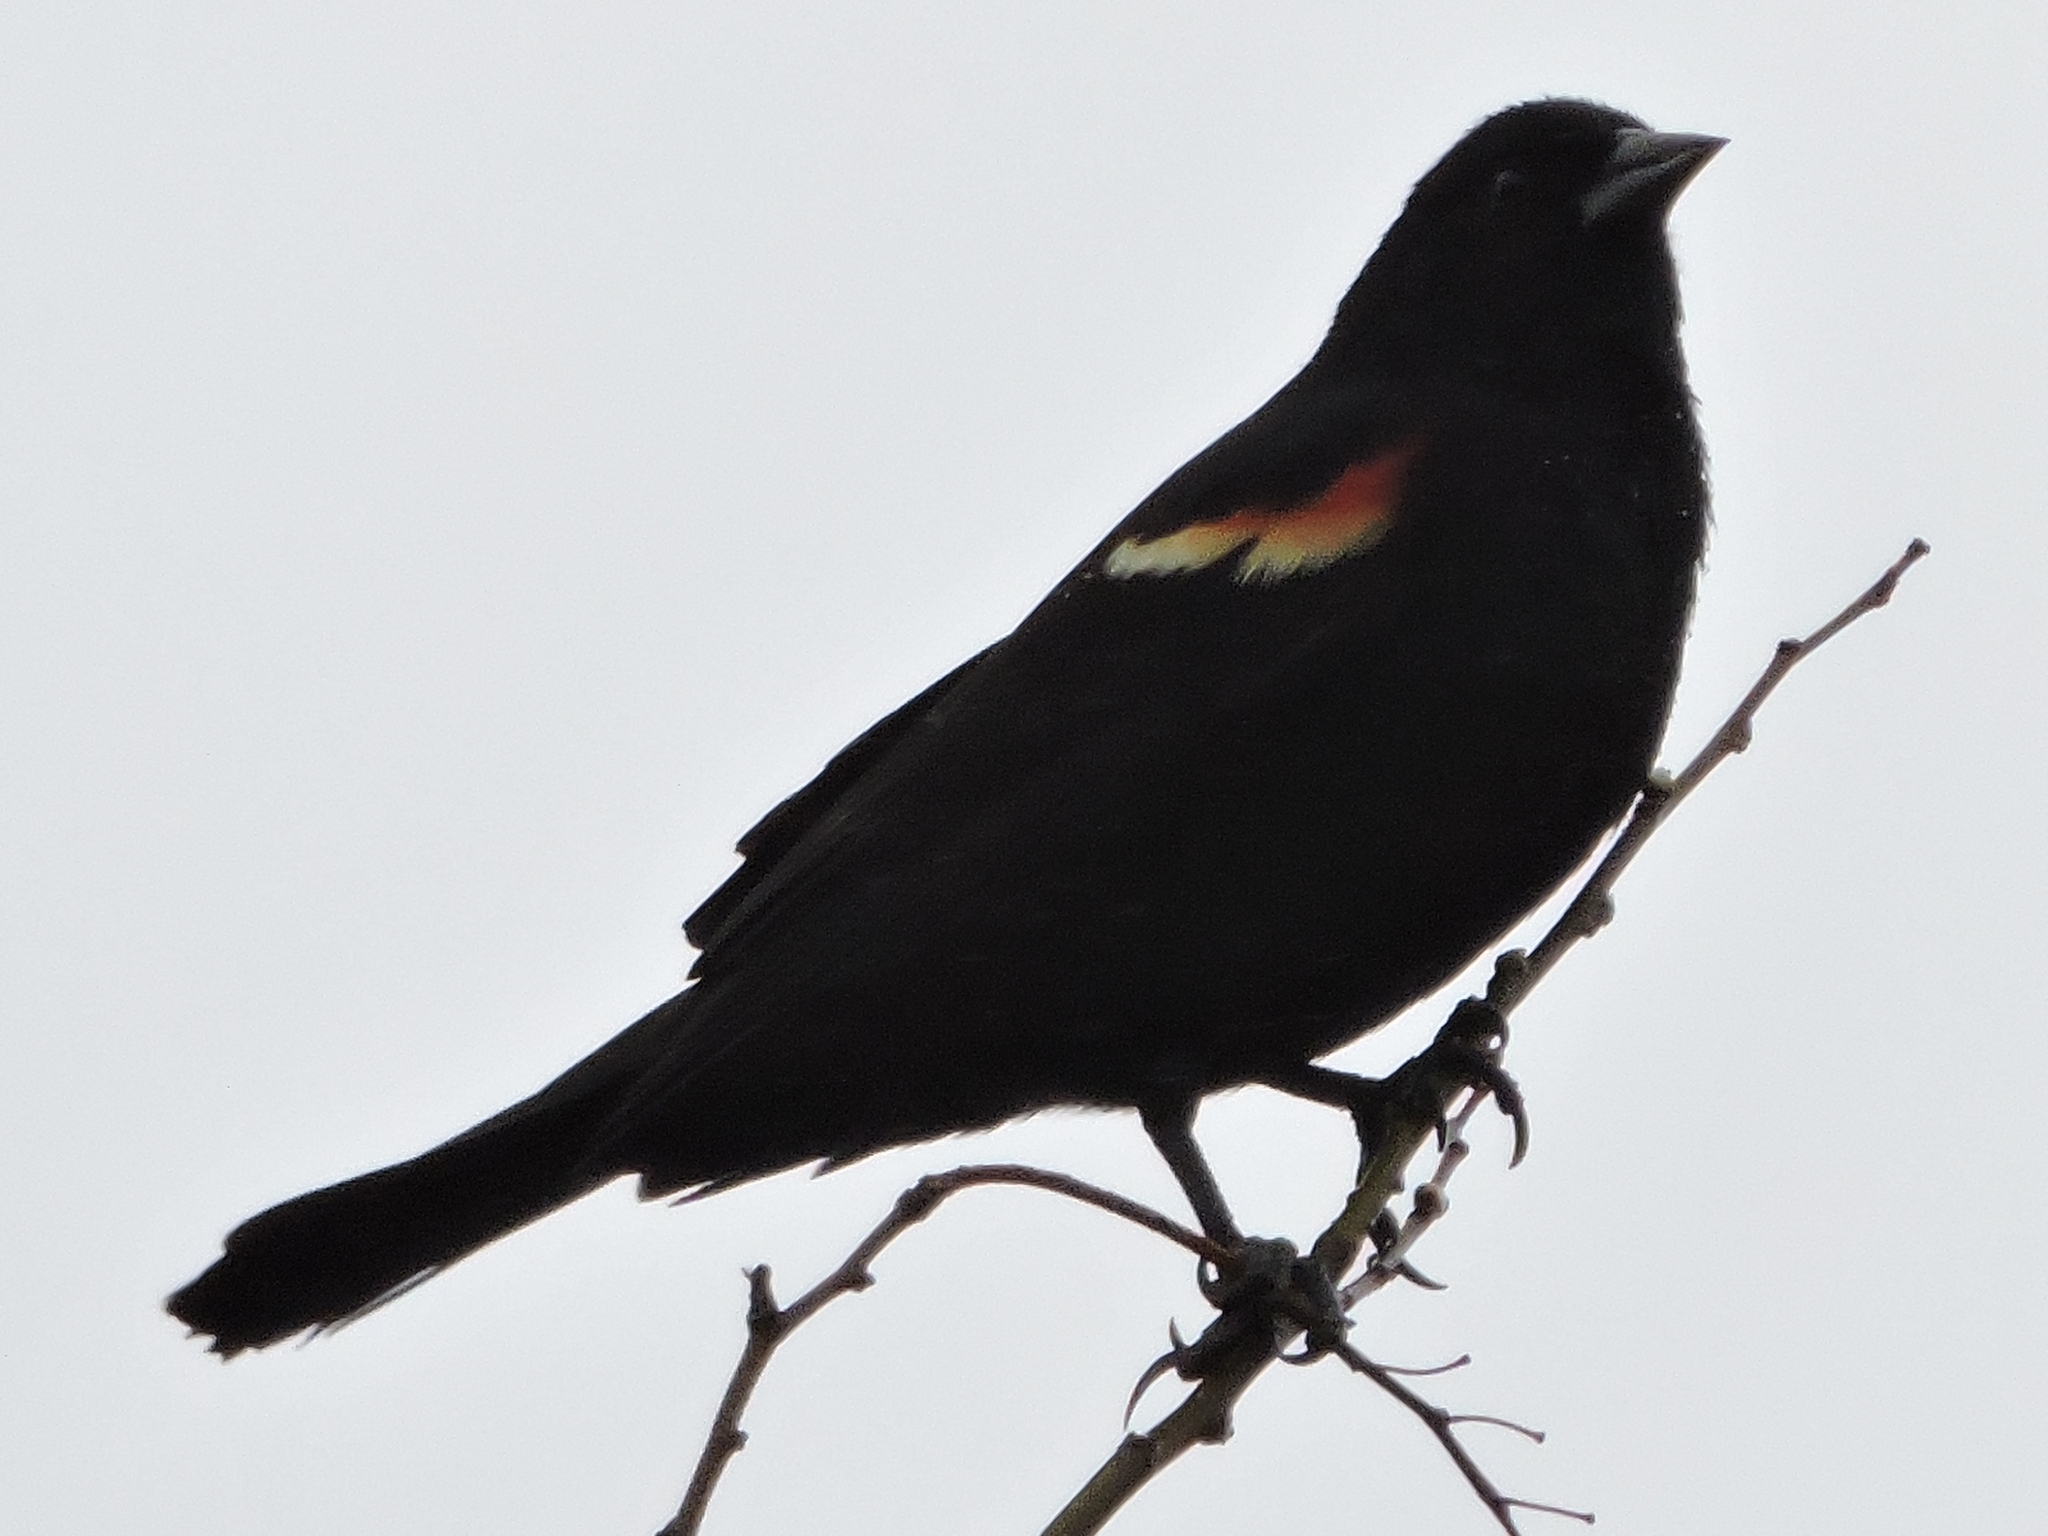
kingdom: Animalia
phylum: Chordata
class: Aves
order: Passeriformes
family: Icteridae
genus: Agelaius
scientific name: Agelaius phoeniceus
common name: Red-winged blackbird
